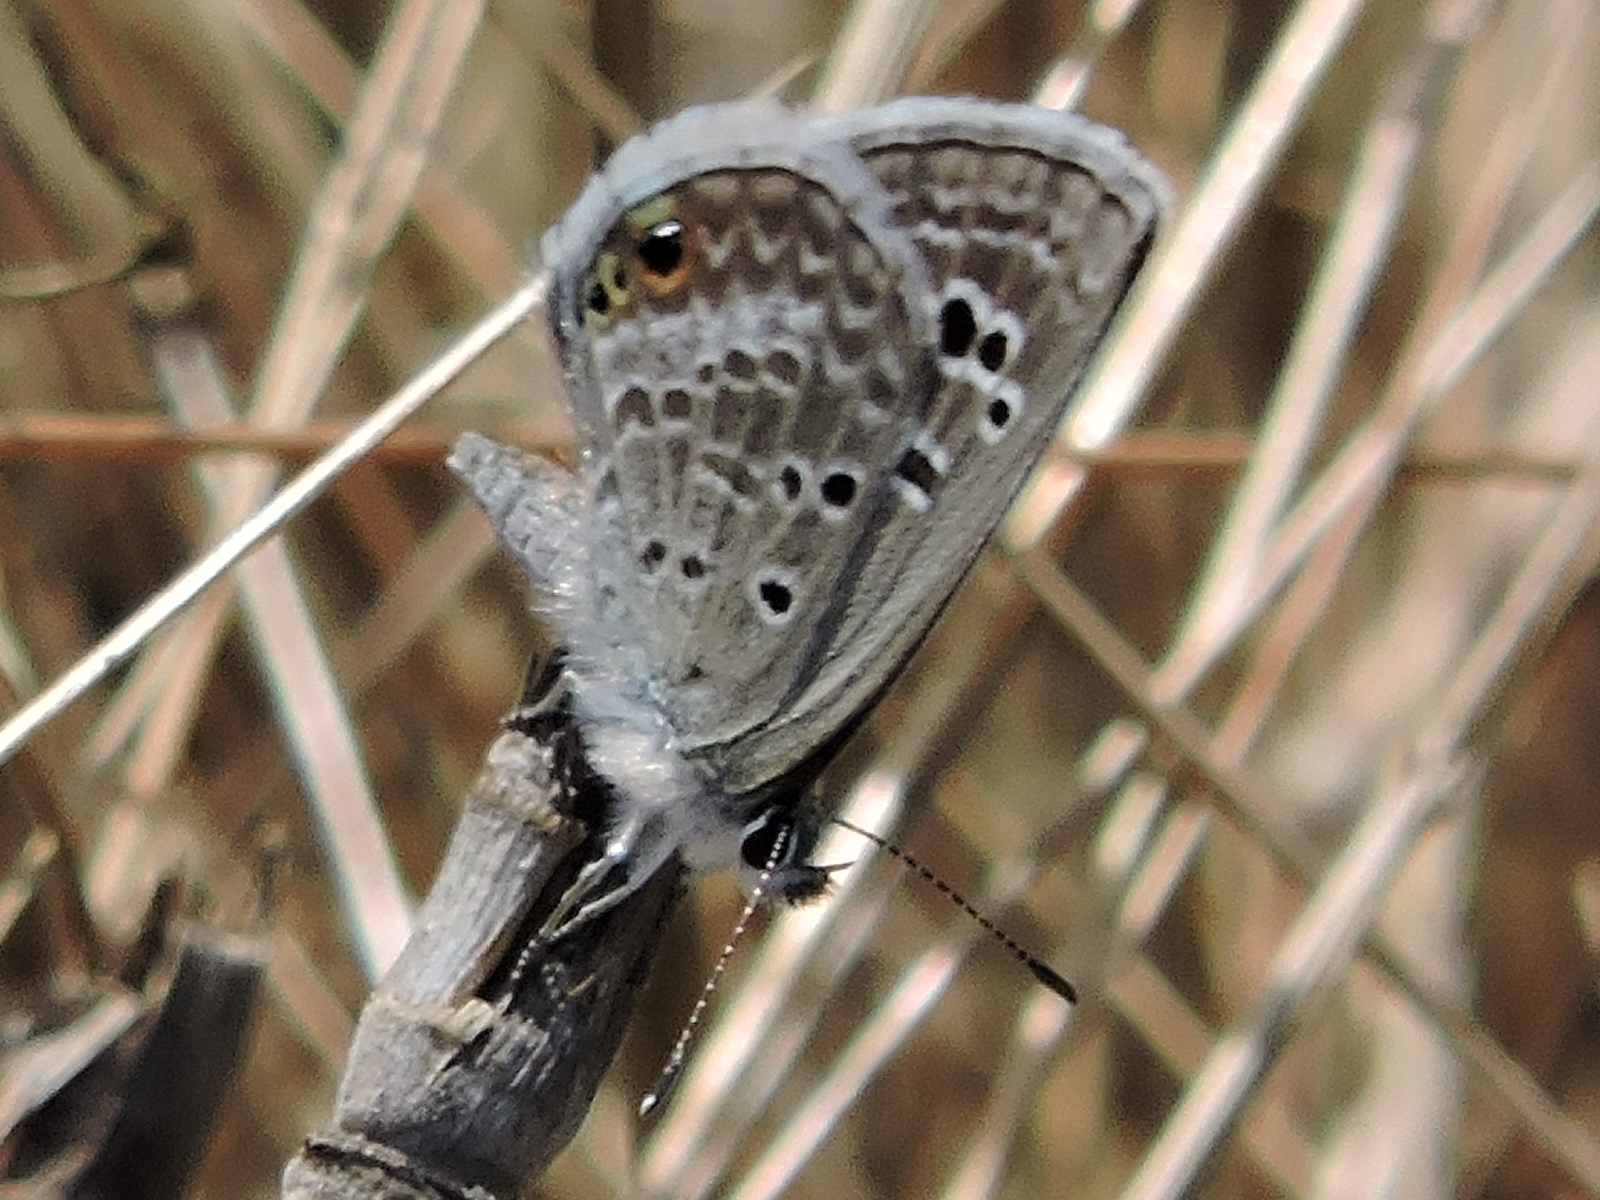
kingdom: Animalia
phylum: Arthropoda
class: Insecta
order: Lepidoptera
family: Lycaenidae
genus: Echinargus
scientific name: Echinargus isola
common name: Reakirt's blue
